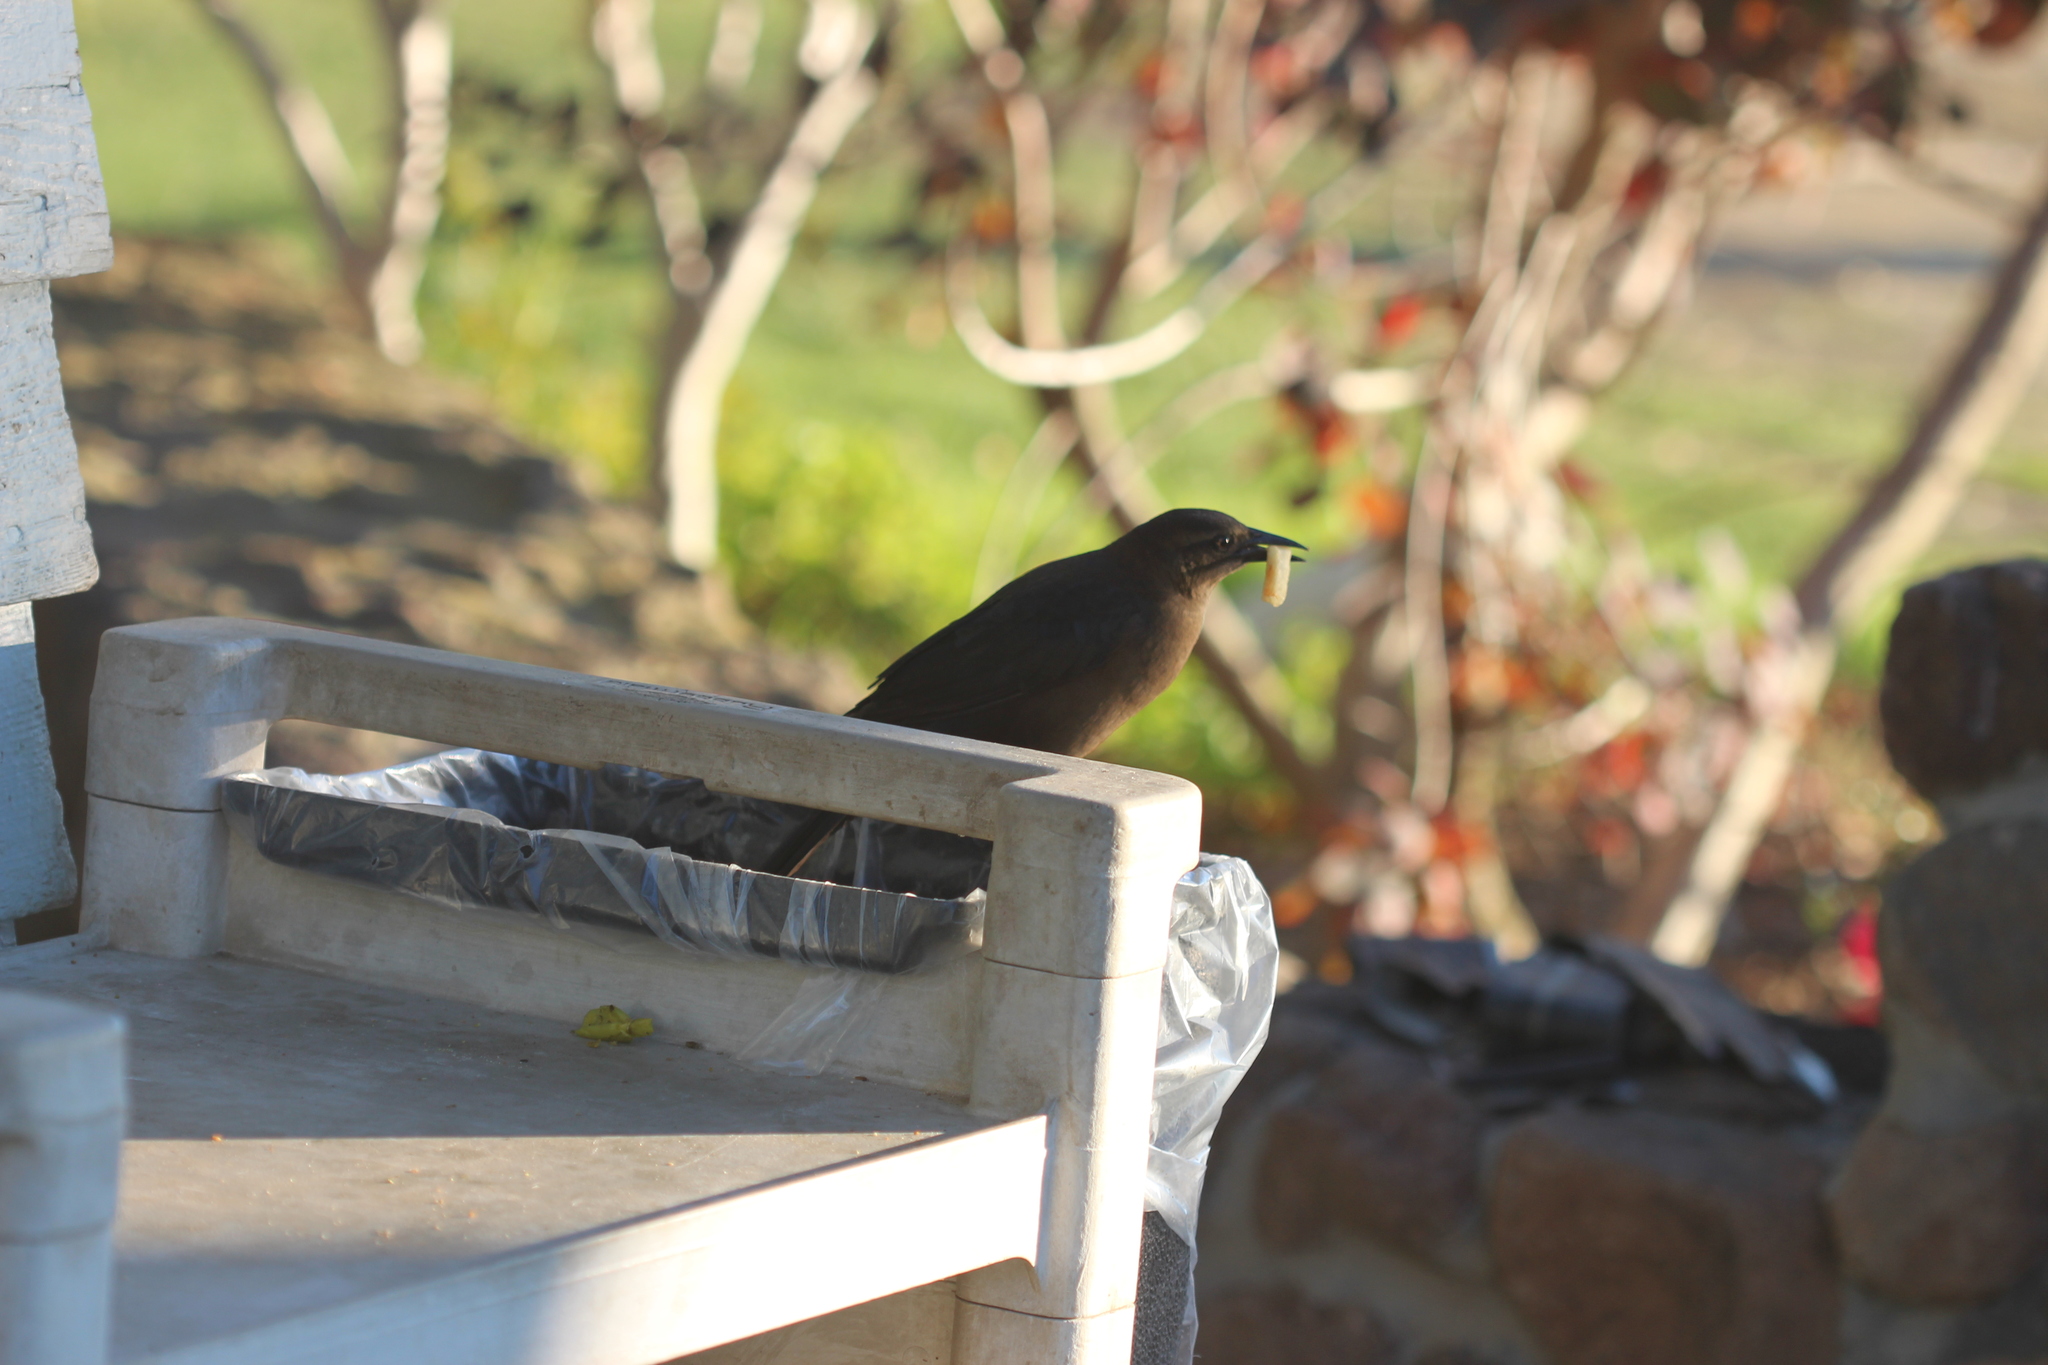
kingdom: Animalia
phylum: Chordata
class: Aves
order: Passeriformes
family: Icteridae
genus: Quiscalus
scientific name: Quiscalus mexicanus
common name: Great-tailed grackle
